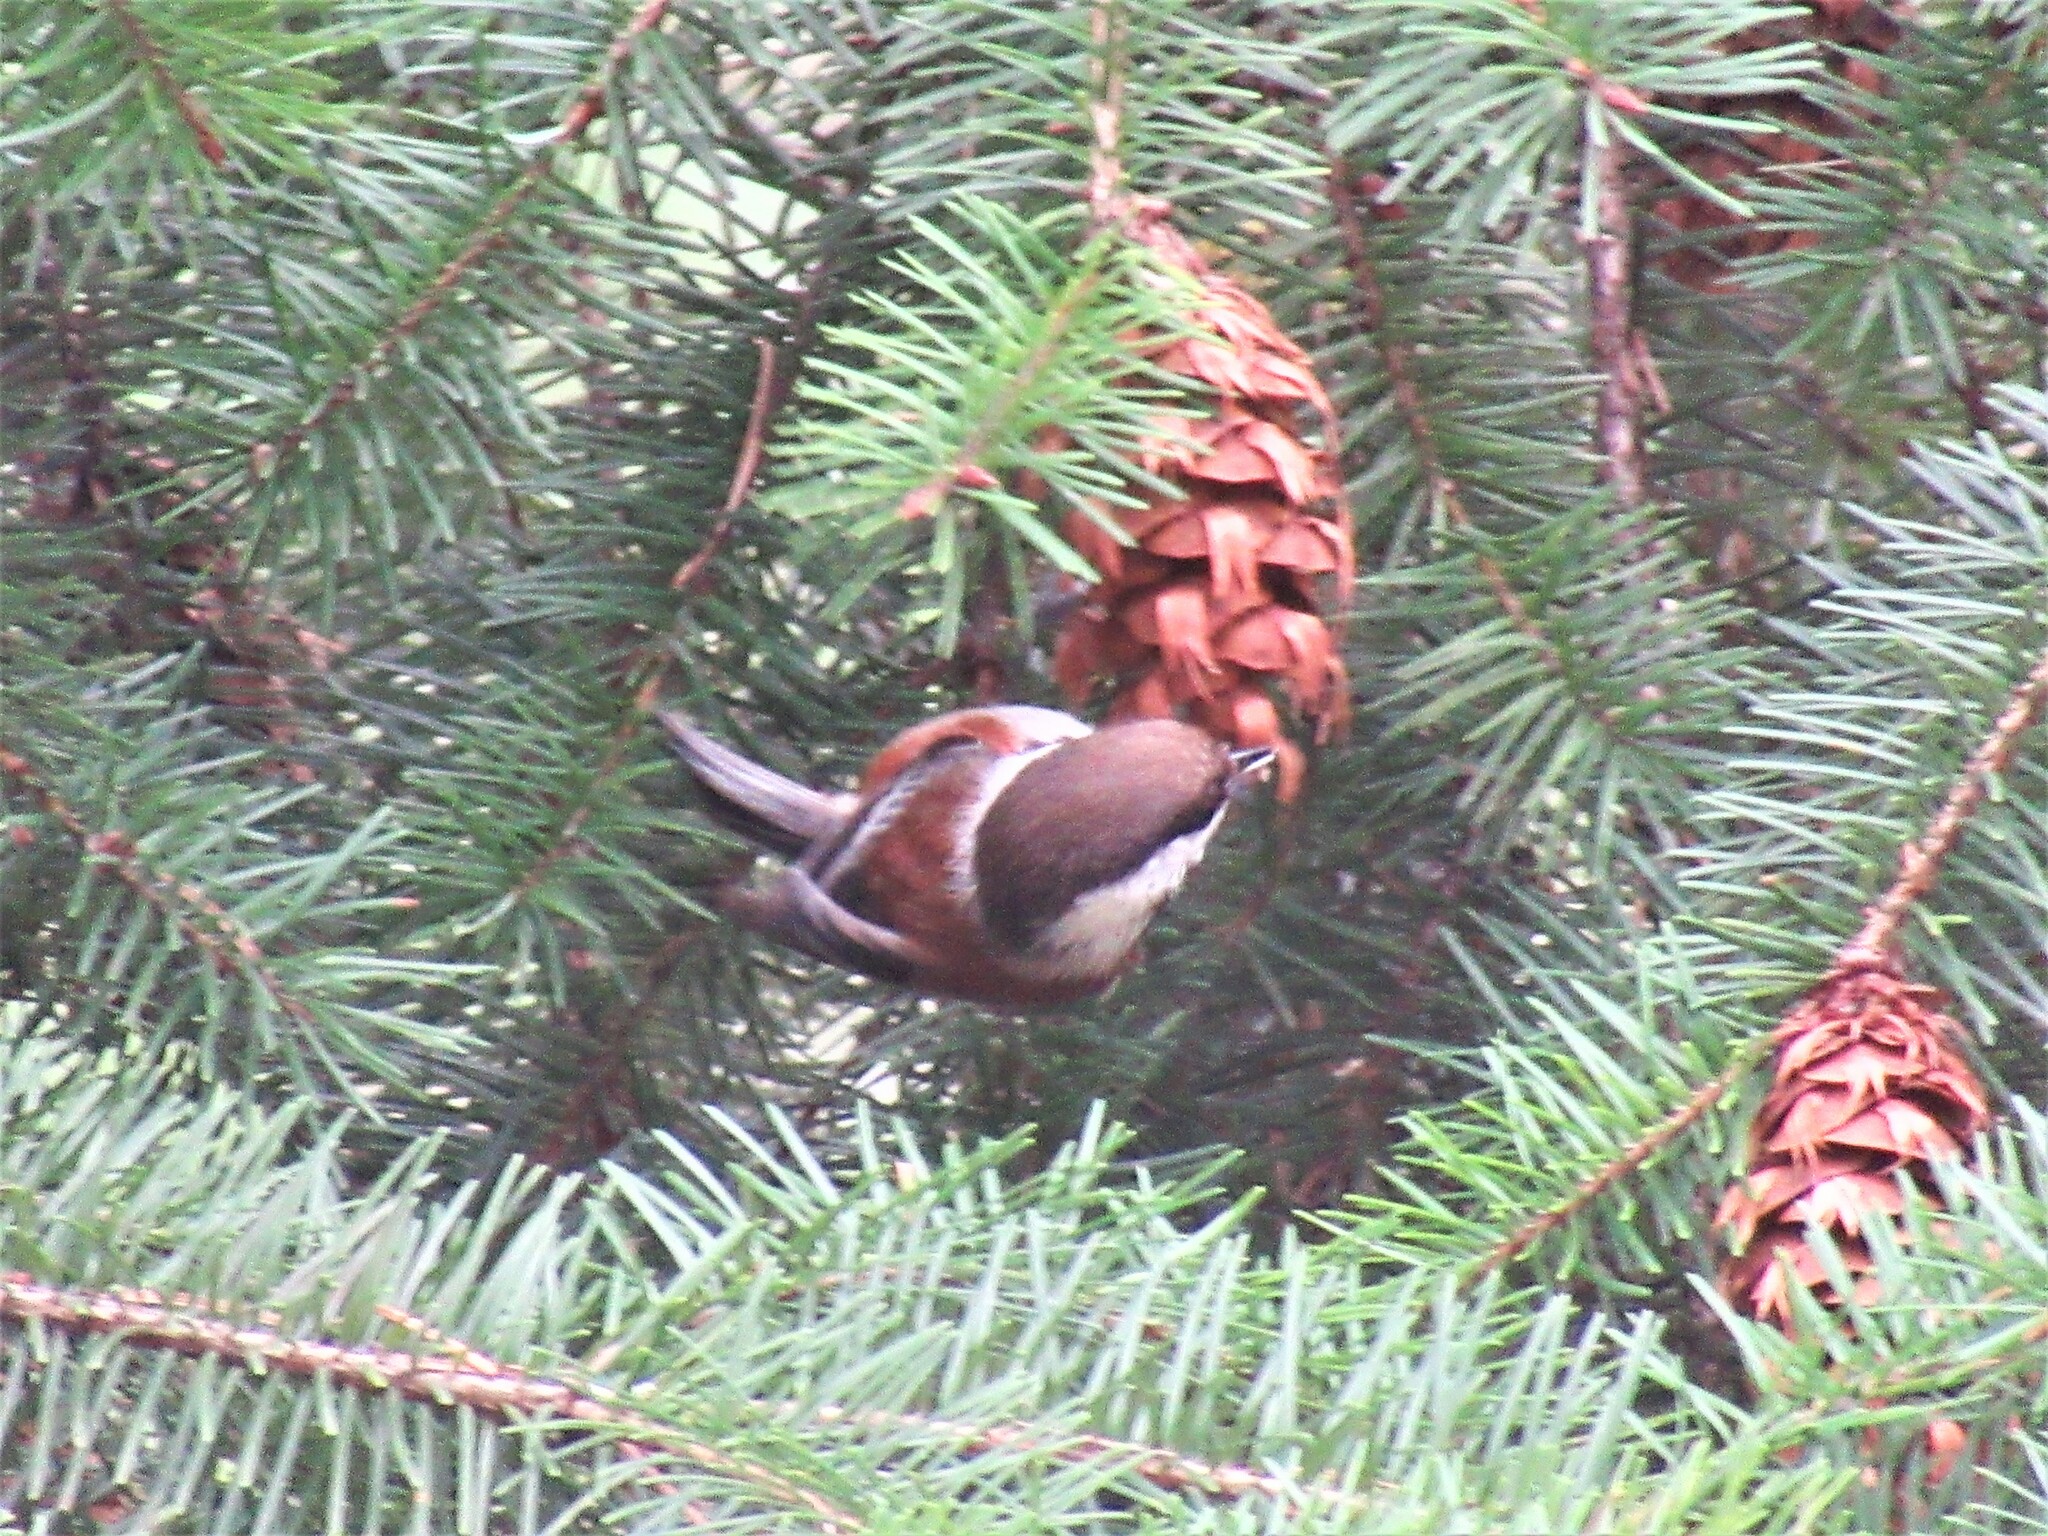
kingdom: Animalia
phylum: Chordata
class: Aves
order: Passeriformes
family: Paridae
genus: Poecile
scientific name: Poecile rufescens
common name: Chestnut-backed chickadee
